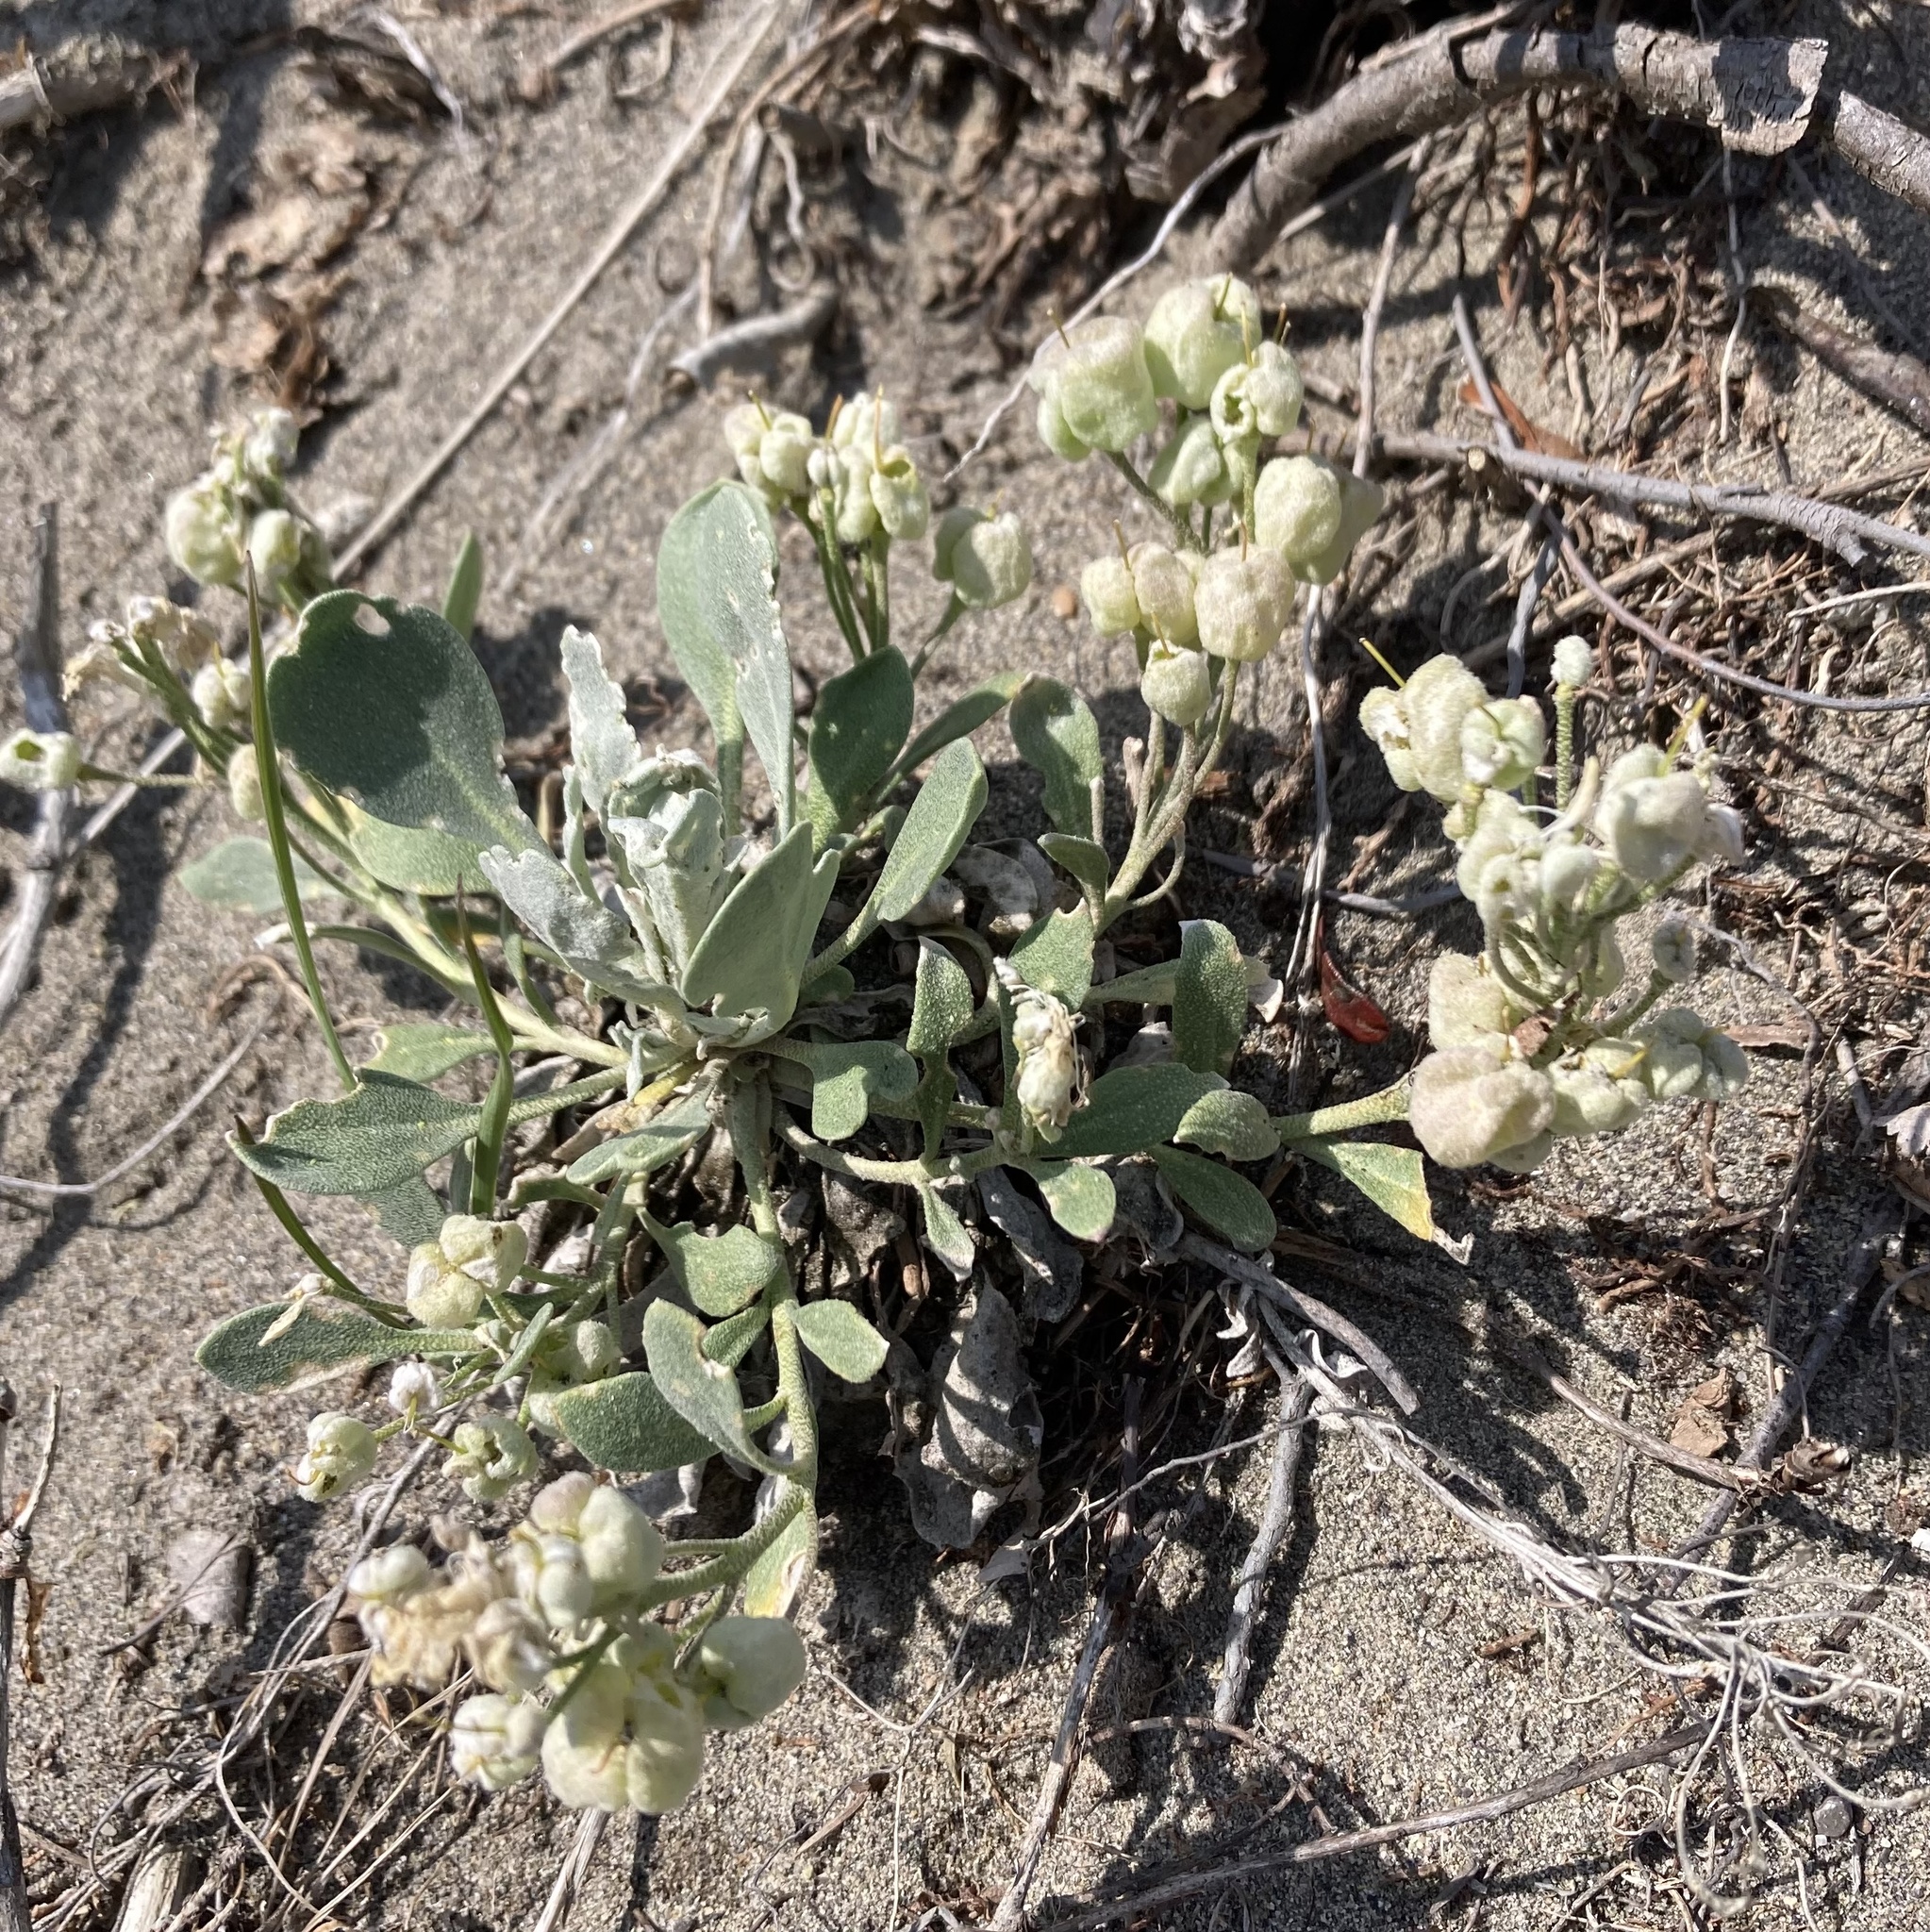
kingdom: Plantae
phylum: Tracheophyta
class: Magnoliopsida
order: Brassicales
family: Brassicaceae
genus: Physaria
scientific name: Physaria didymocarpa
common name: Common twinpod
